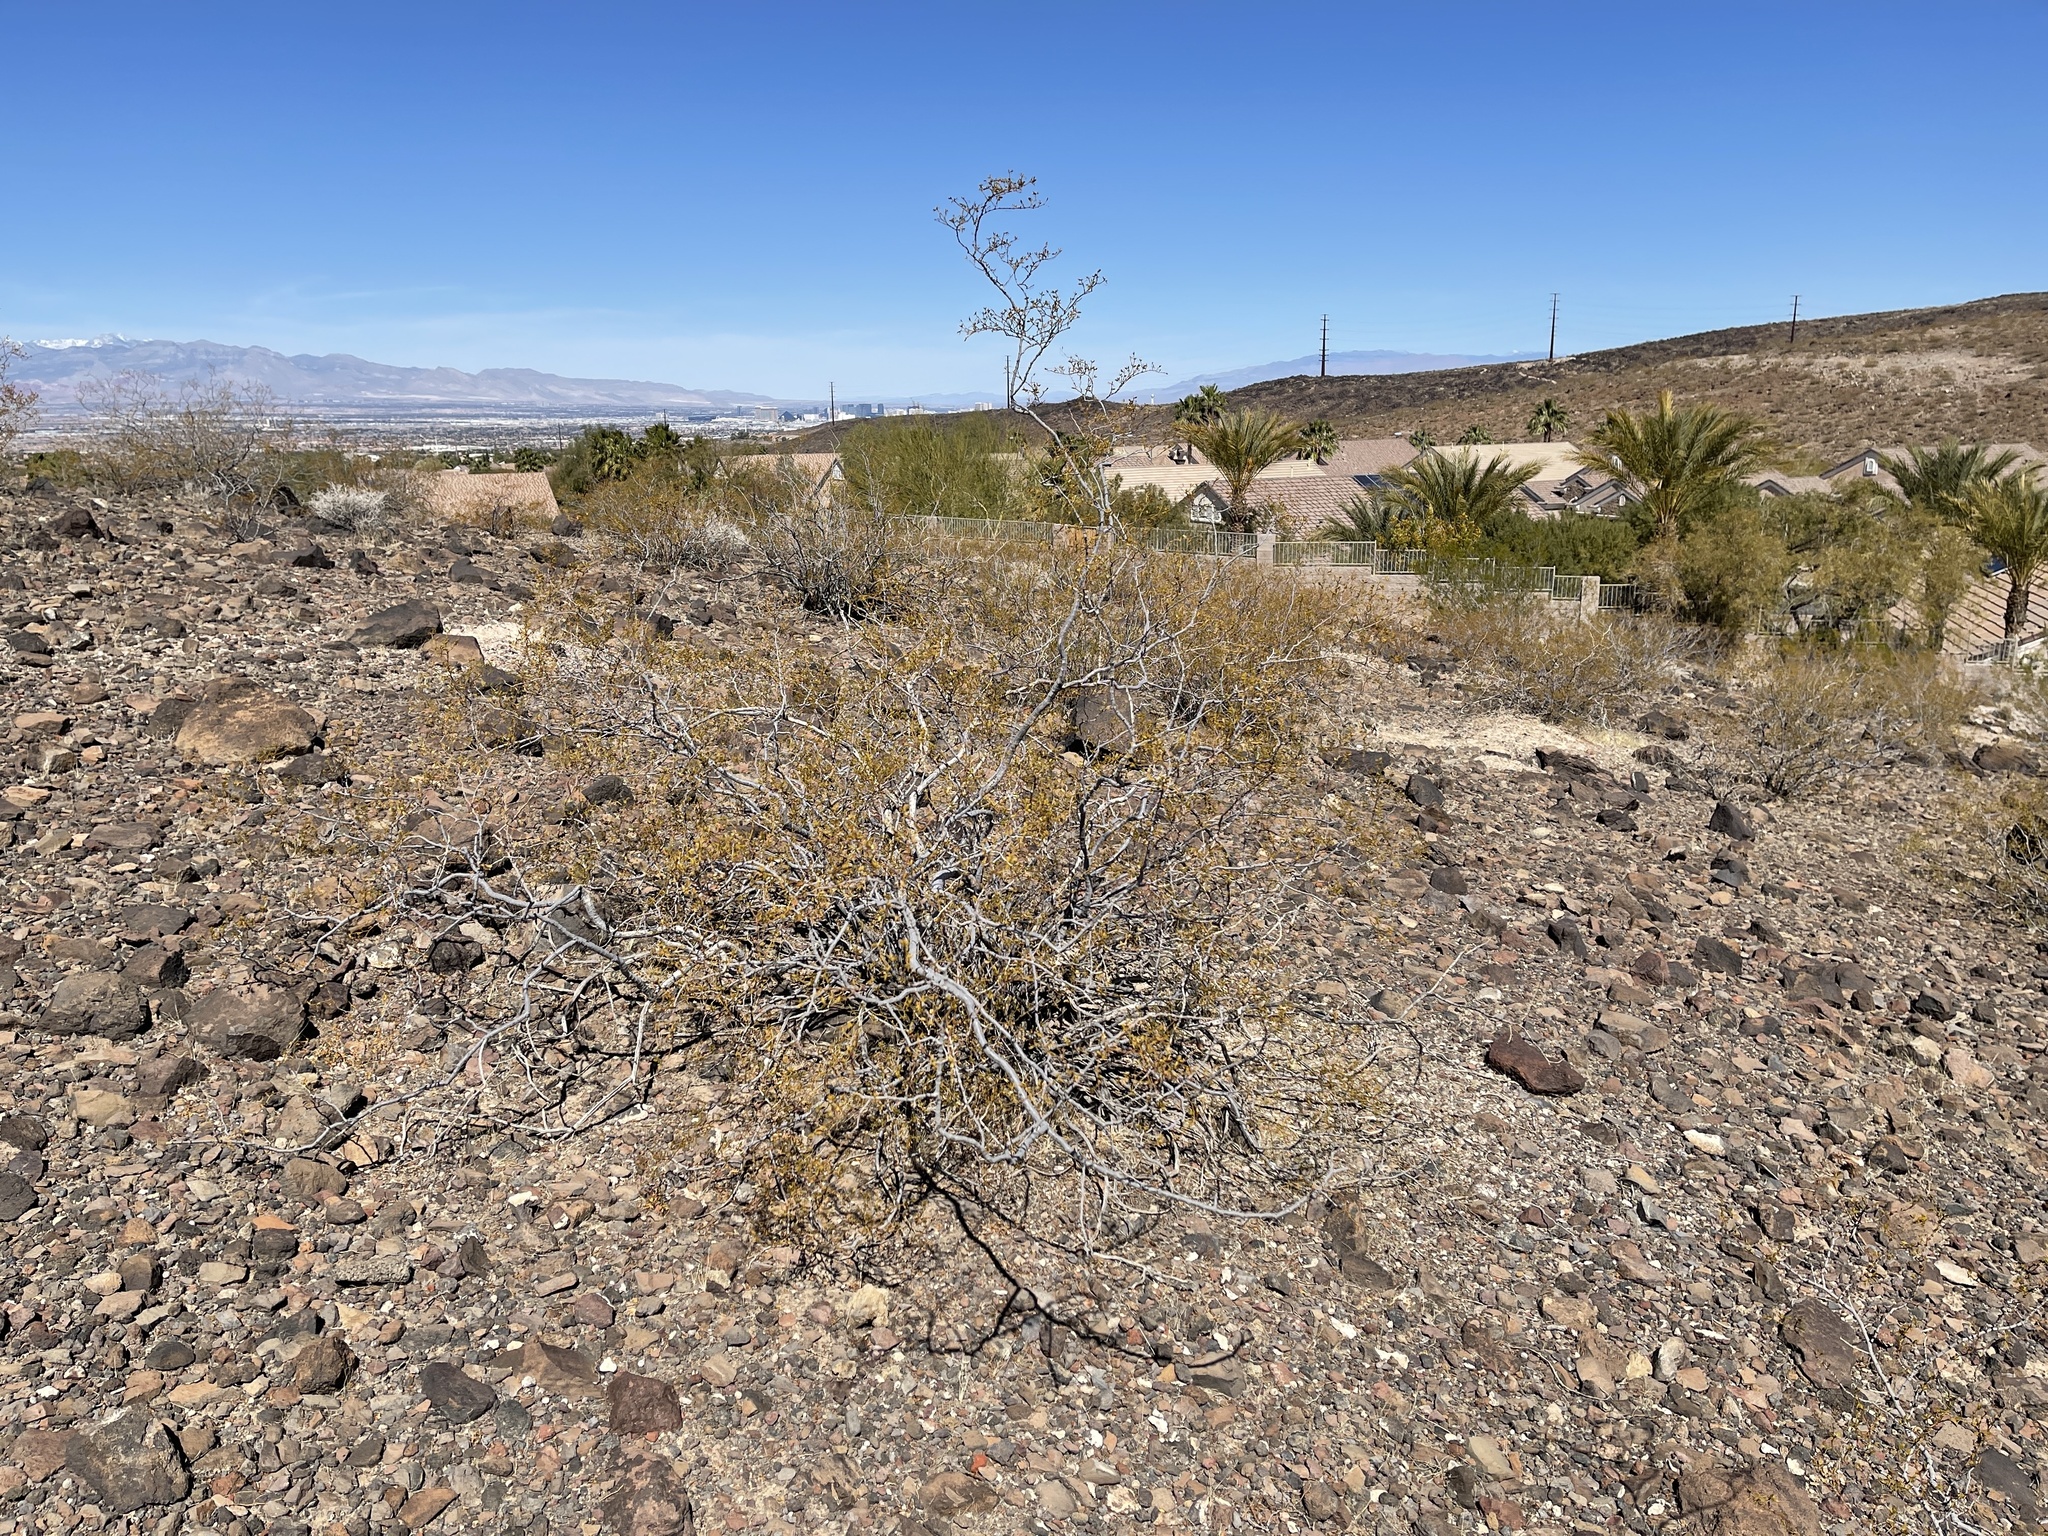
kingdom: Plantae
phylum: Tracheophyta
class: Magnoliopsida
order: Zygophyllales
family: Zygophyllaceae
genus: Larrea
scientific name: Larrea tridentata
